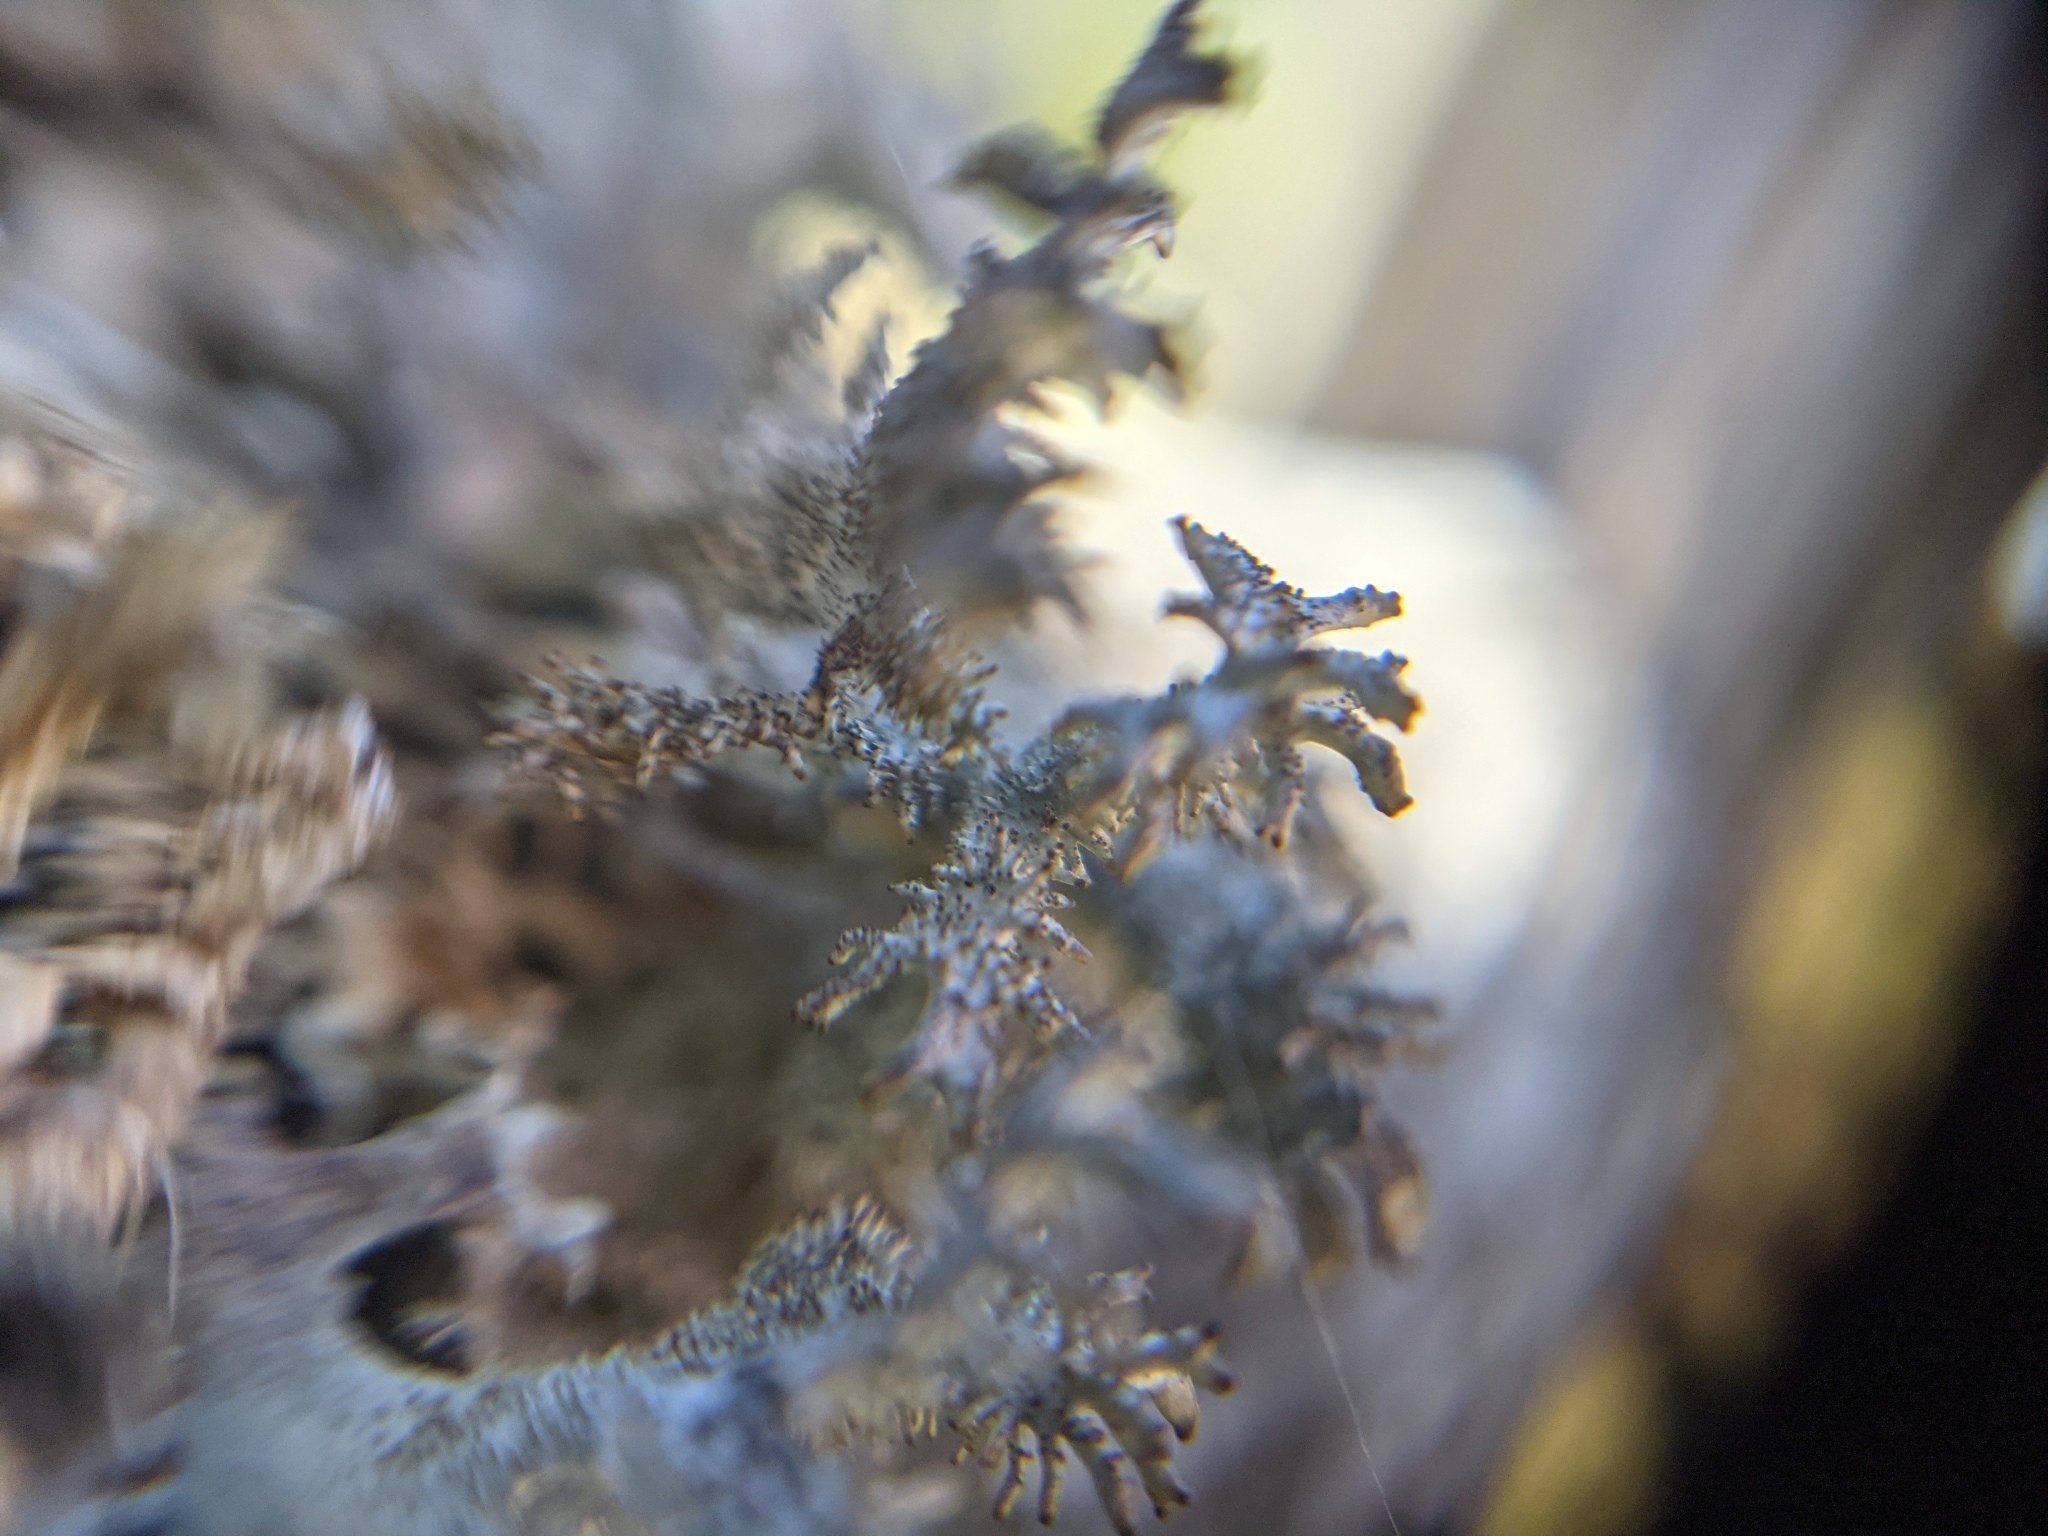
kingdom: Fungi
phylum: Ascomycota
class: Lecanoromycetes
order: Lecanorales
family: Parmeliaceae
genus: Pseudevernia
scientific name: Pseudevernia furfuracea
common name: Tree moss
